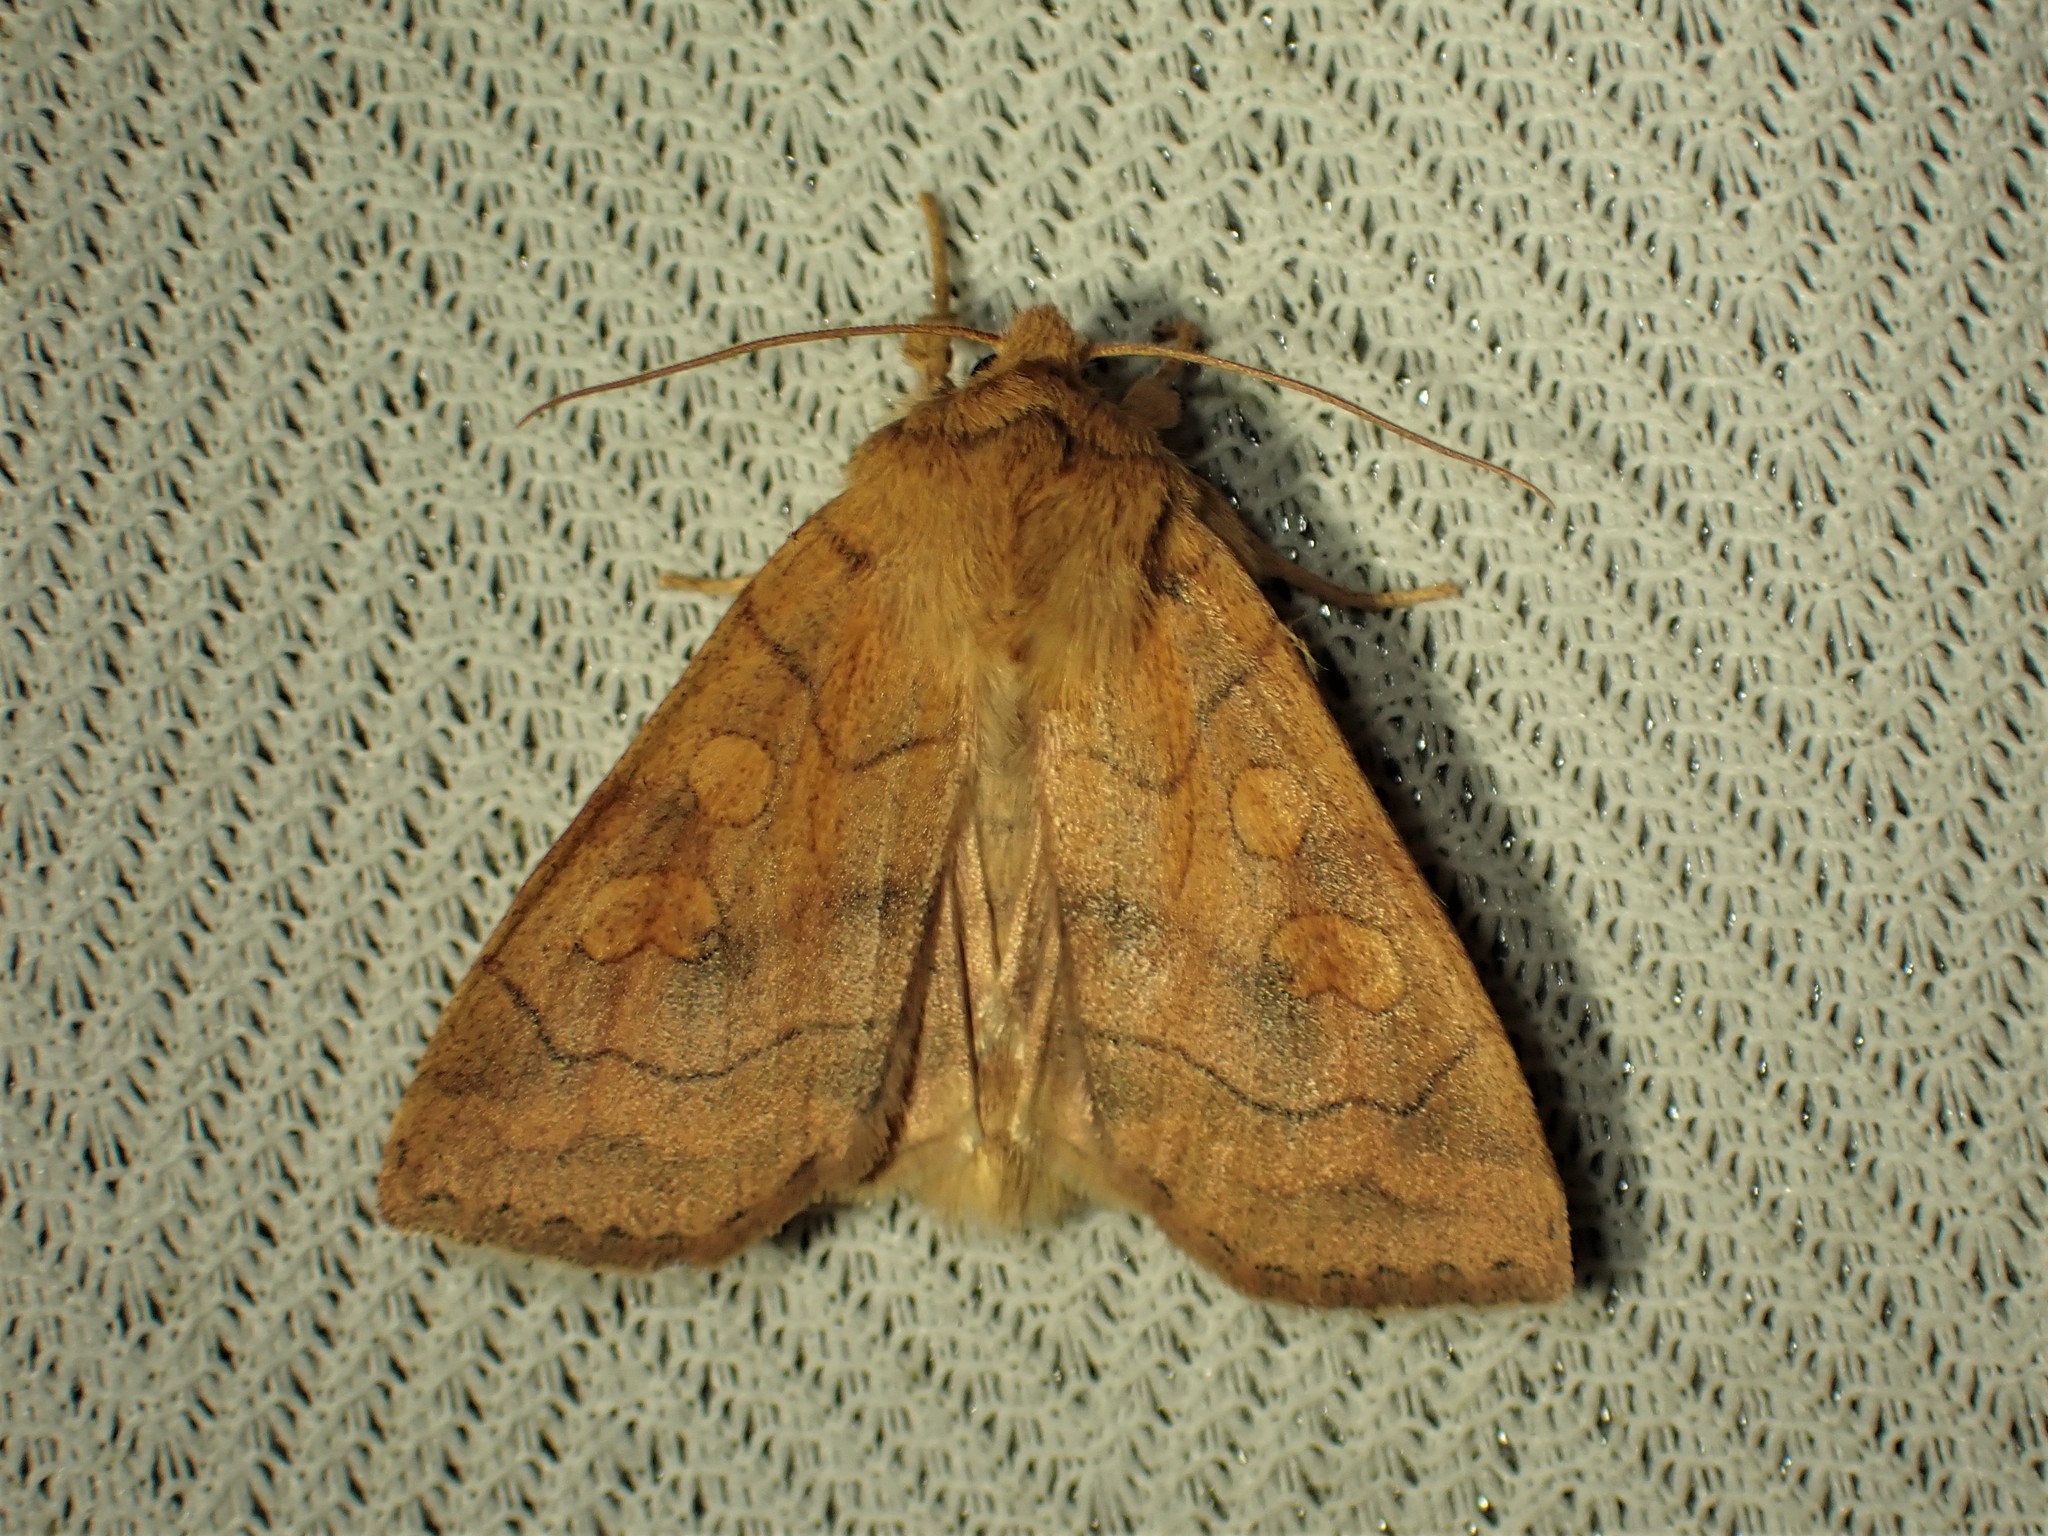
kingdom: Animalia
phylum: Arthropoda
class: Insecta
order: Lepidoptera
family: Noctuidae
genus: Enargia
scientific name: Enargia decolor
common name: Aspen twoleaf tier moth
